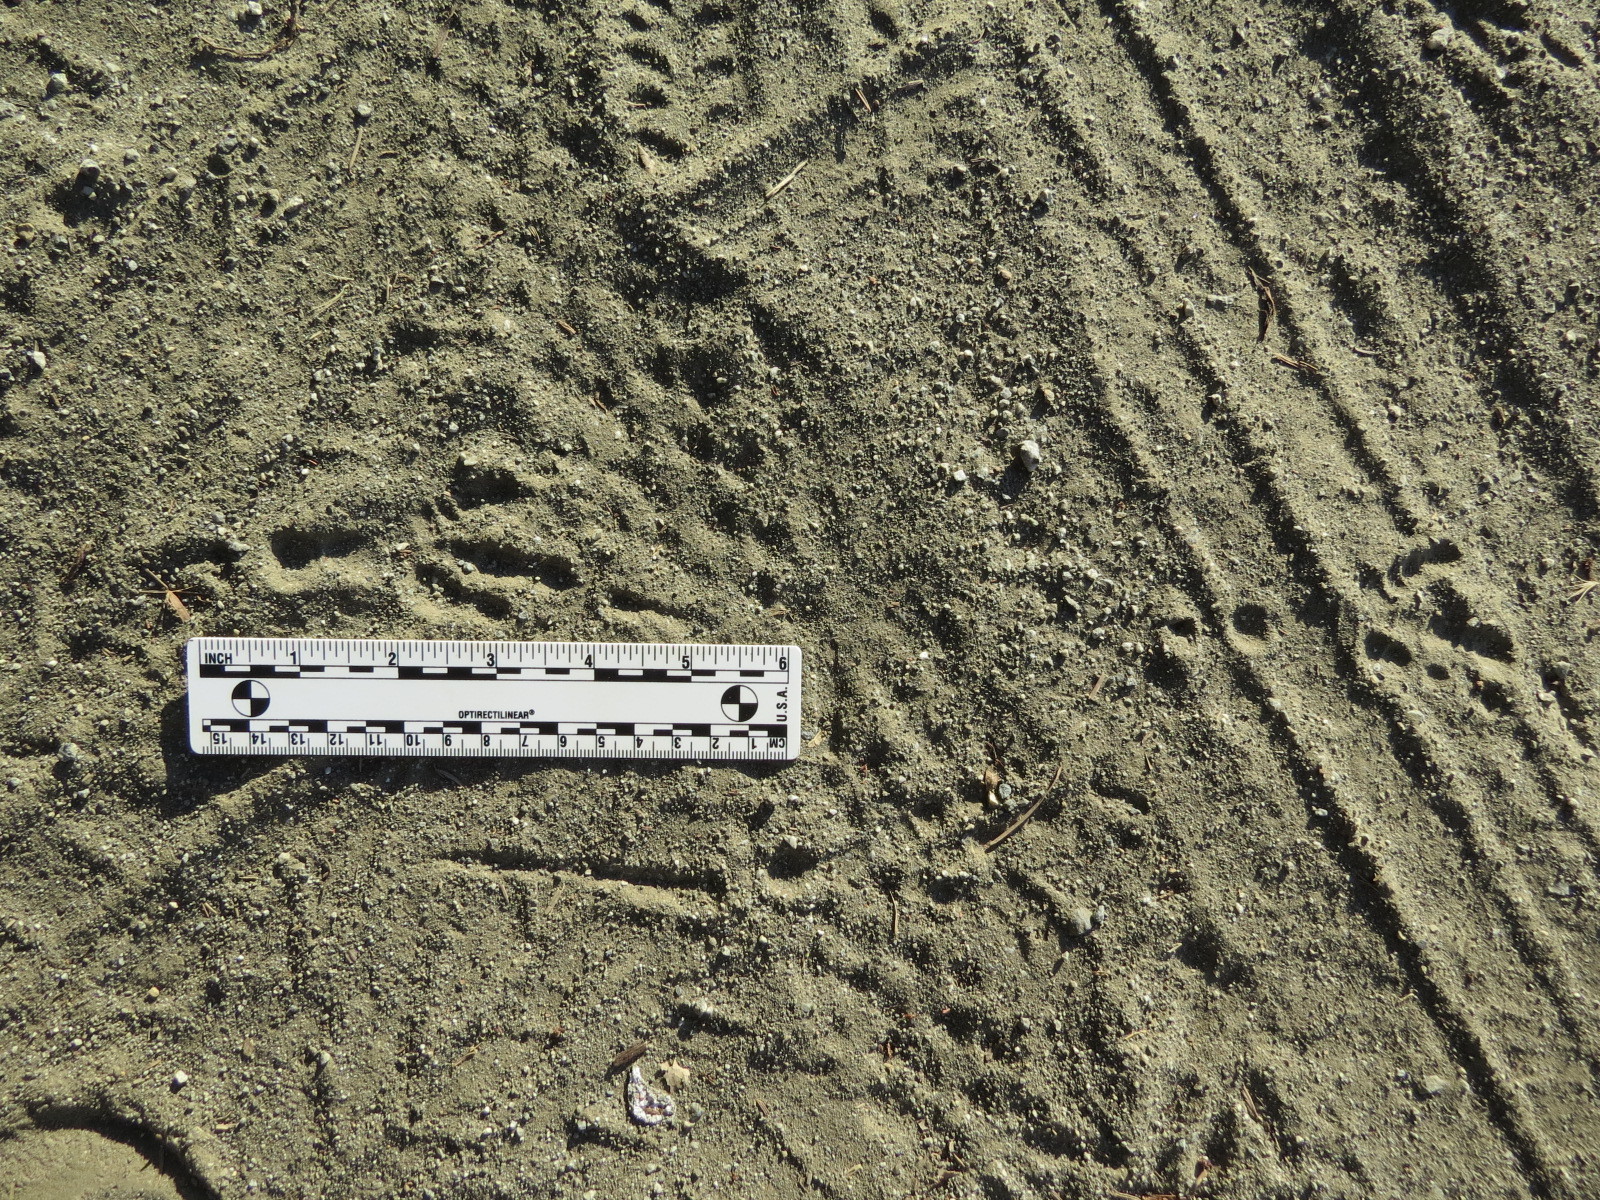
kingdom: Animalia
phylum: Chordata
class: Aves
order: Passeriformes
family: Corvidae
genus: Corvus
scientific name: Corvus corax
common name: Common raven
